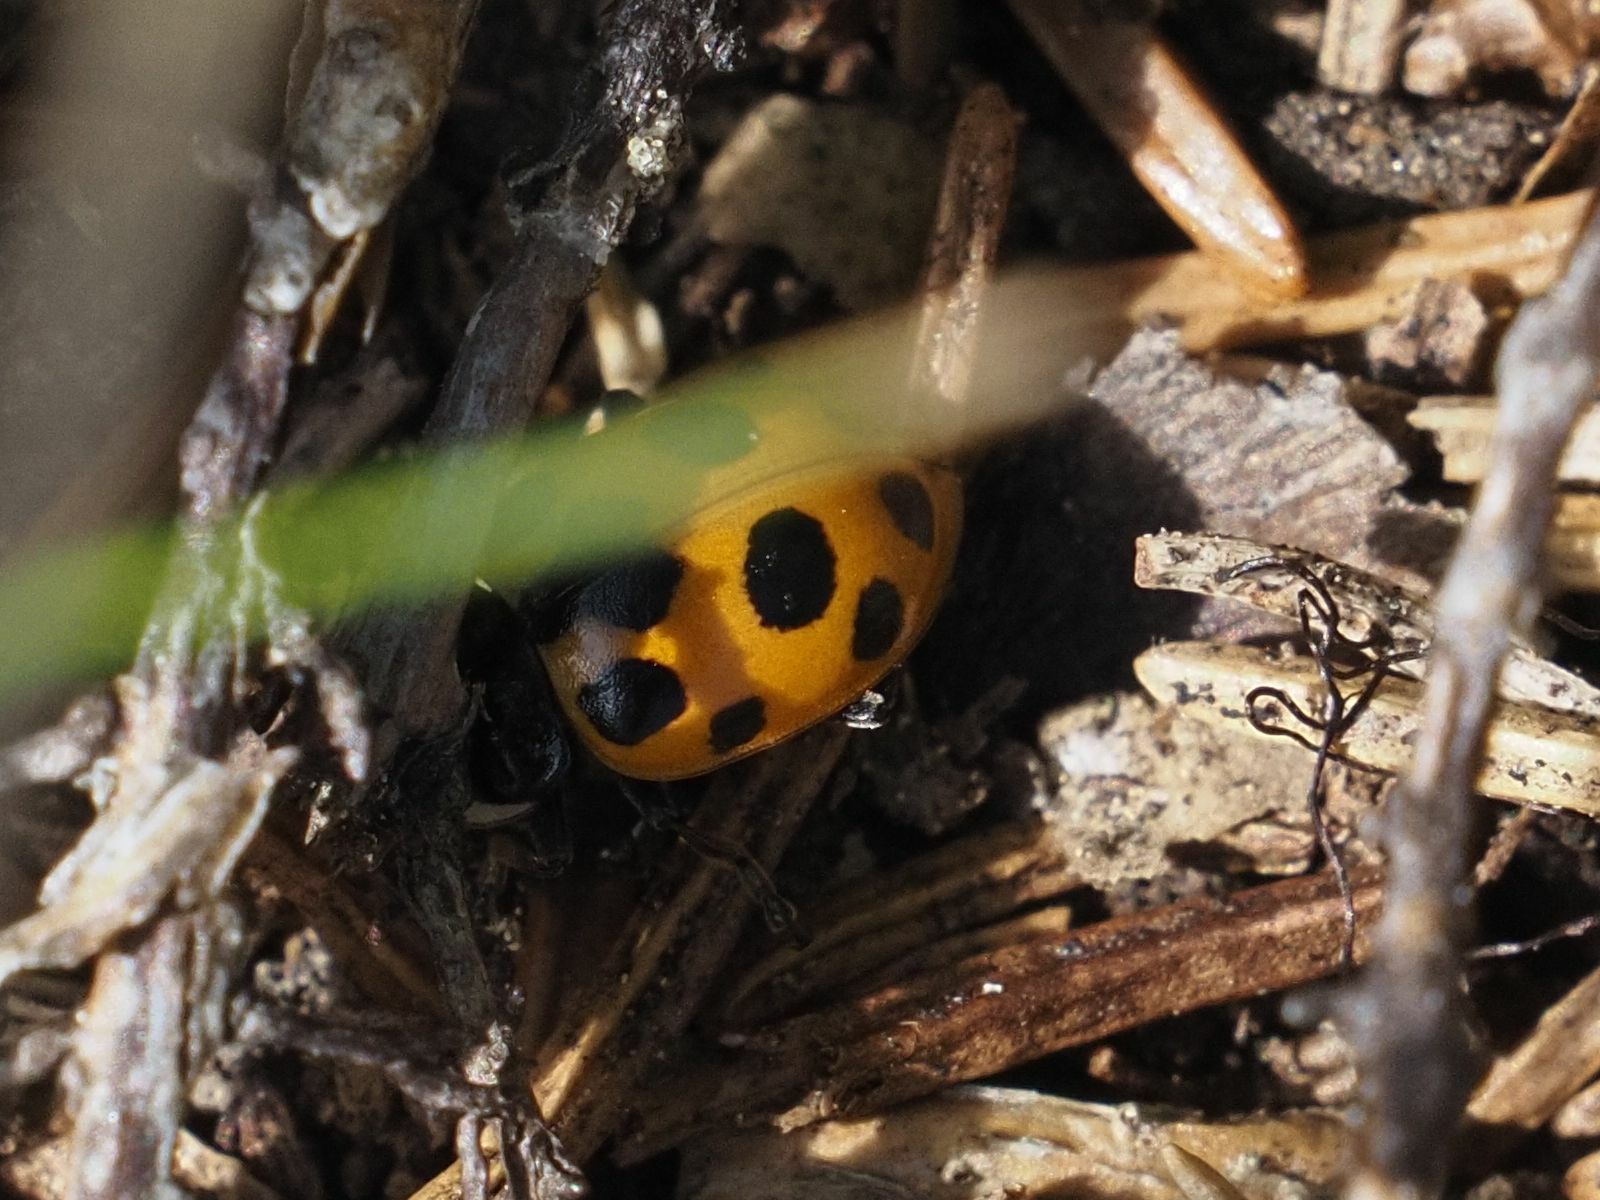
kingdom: Animalia
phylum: Arthropoda
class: Insecta
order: Coleoptera
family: Coccinellidae
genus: Ceratomegilla
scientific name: Ceratomegilla notata
